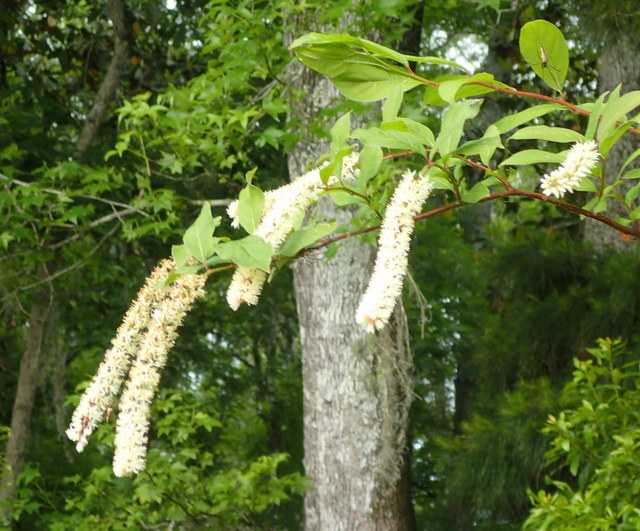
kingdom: Plantae
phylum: Tracheophyta
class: Magnoliopsida
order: Saxifragales
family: Iteaceae
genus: Itea
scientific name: Itea virginica
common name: Sweetspire
